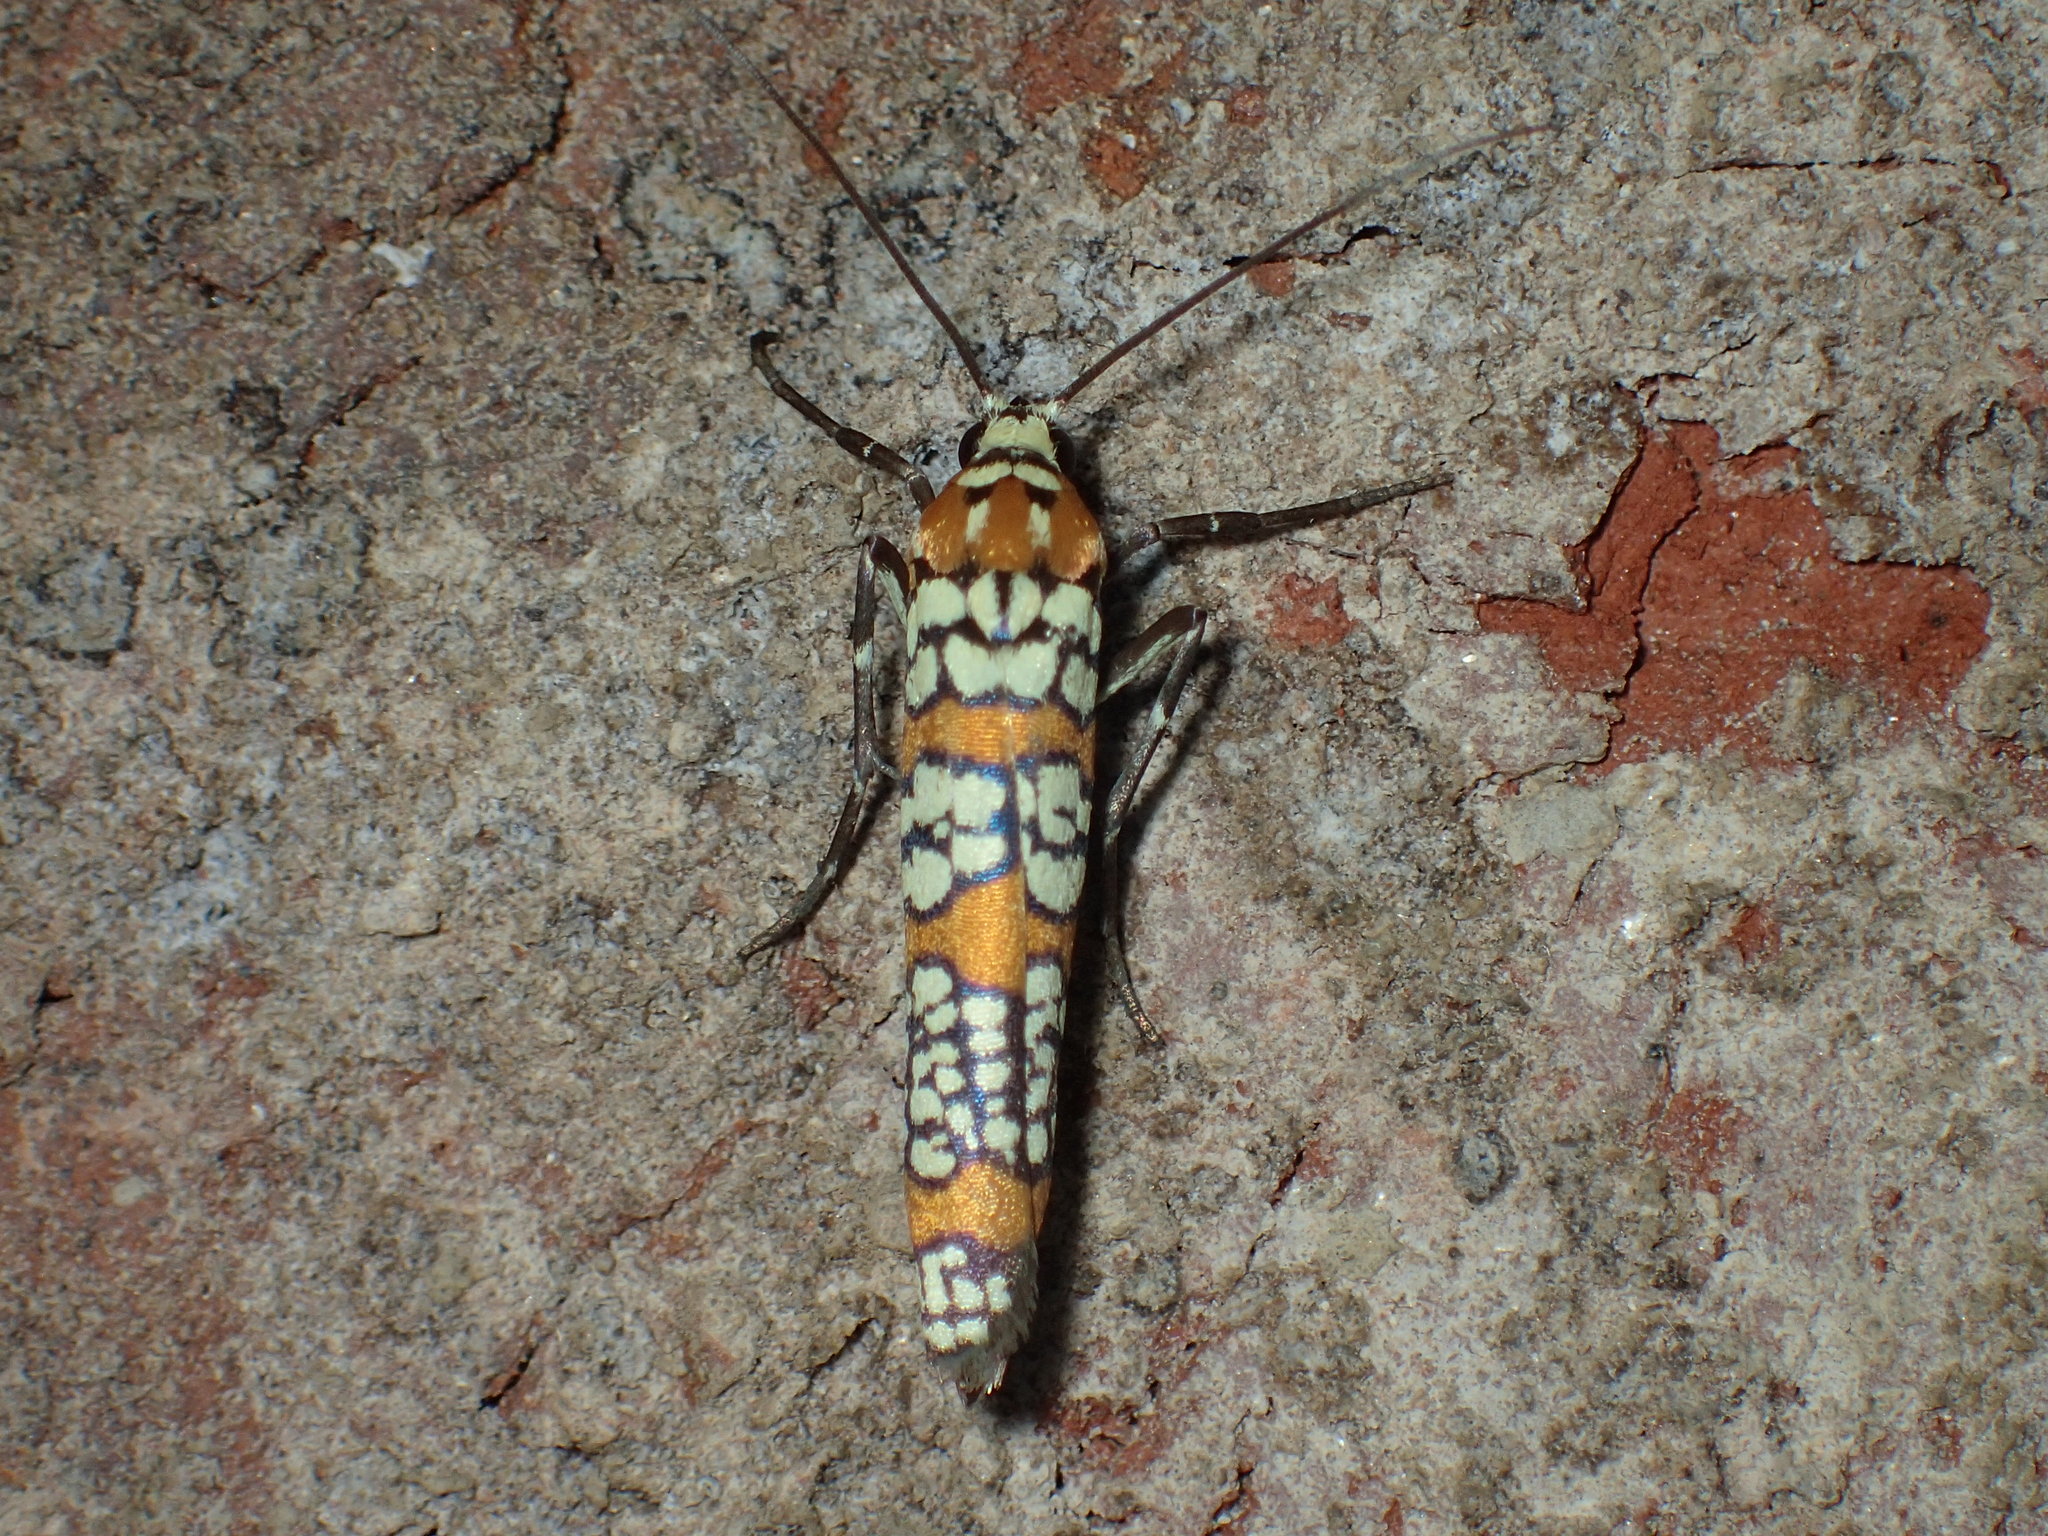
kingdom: Animalia
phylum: Arthropoda
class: Insecta
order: Lepidoptera
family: Attevidae
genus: Atteva
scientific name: Atteva punctella
